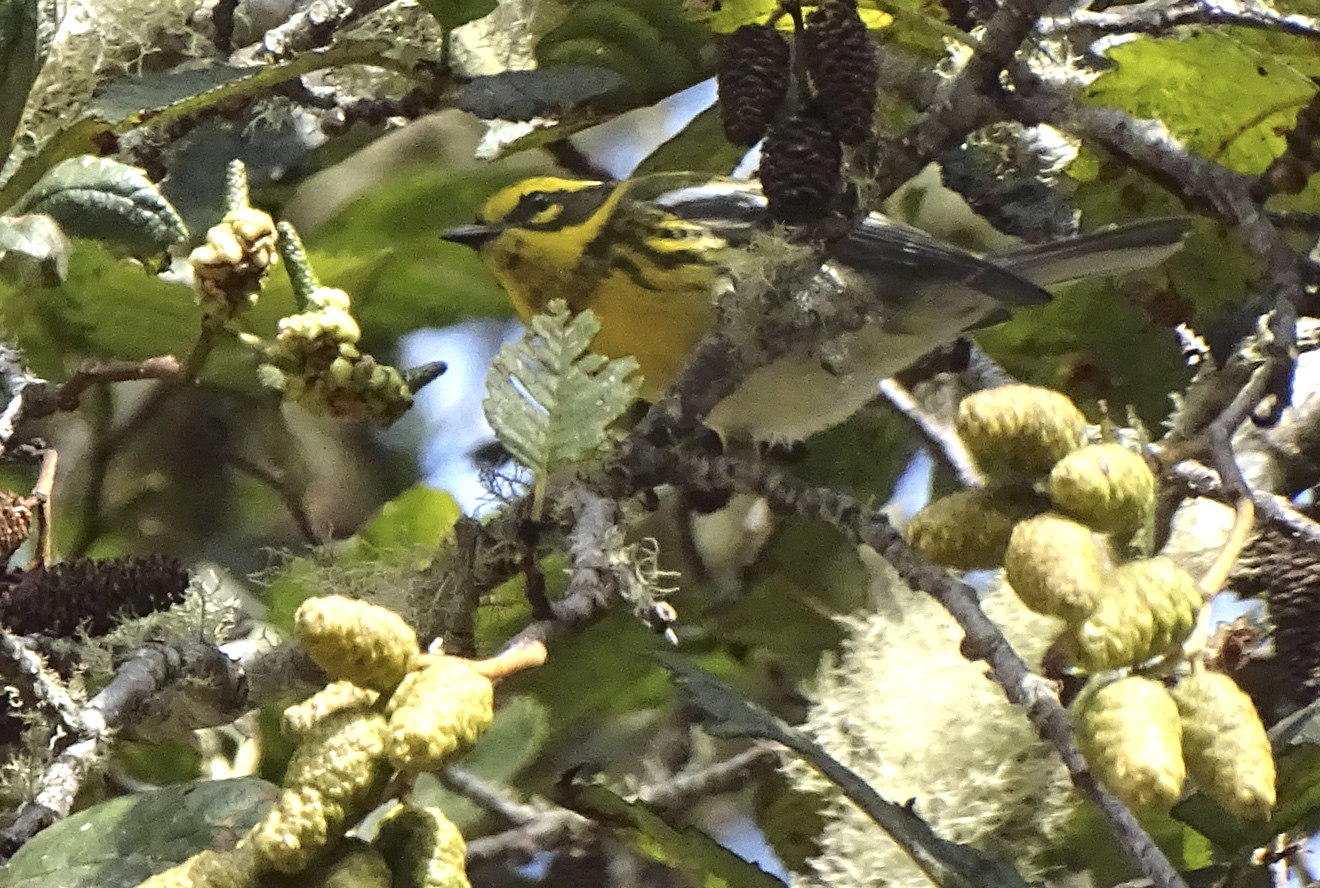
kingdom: Animalia
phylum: Chordata
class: Aves
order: Passeriformes
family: Parulidae
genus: Setophaga
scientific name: Setophaga townsendi
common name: Townsend's warbler
